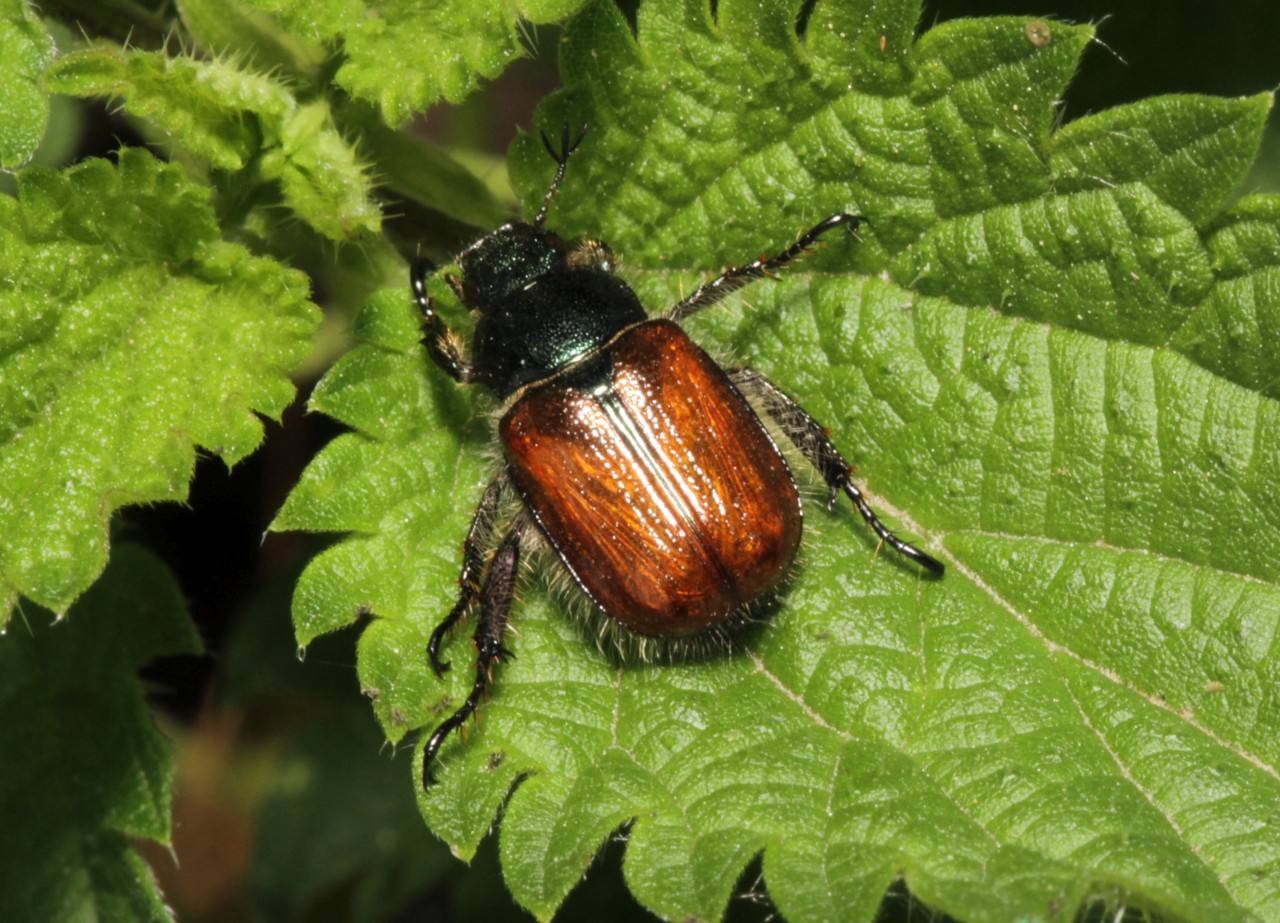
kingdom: Animalia
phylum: Arthropoda
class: Insecta
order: Coleoptera
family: Scarabaeidae
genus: Phyllopertha
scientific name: Phyllopertha horticola
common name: Garden chafer
